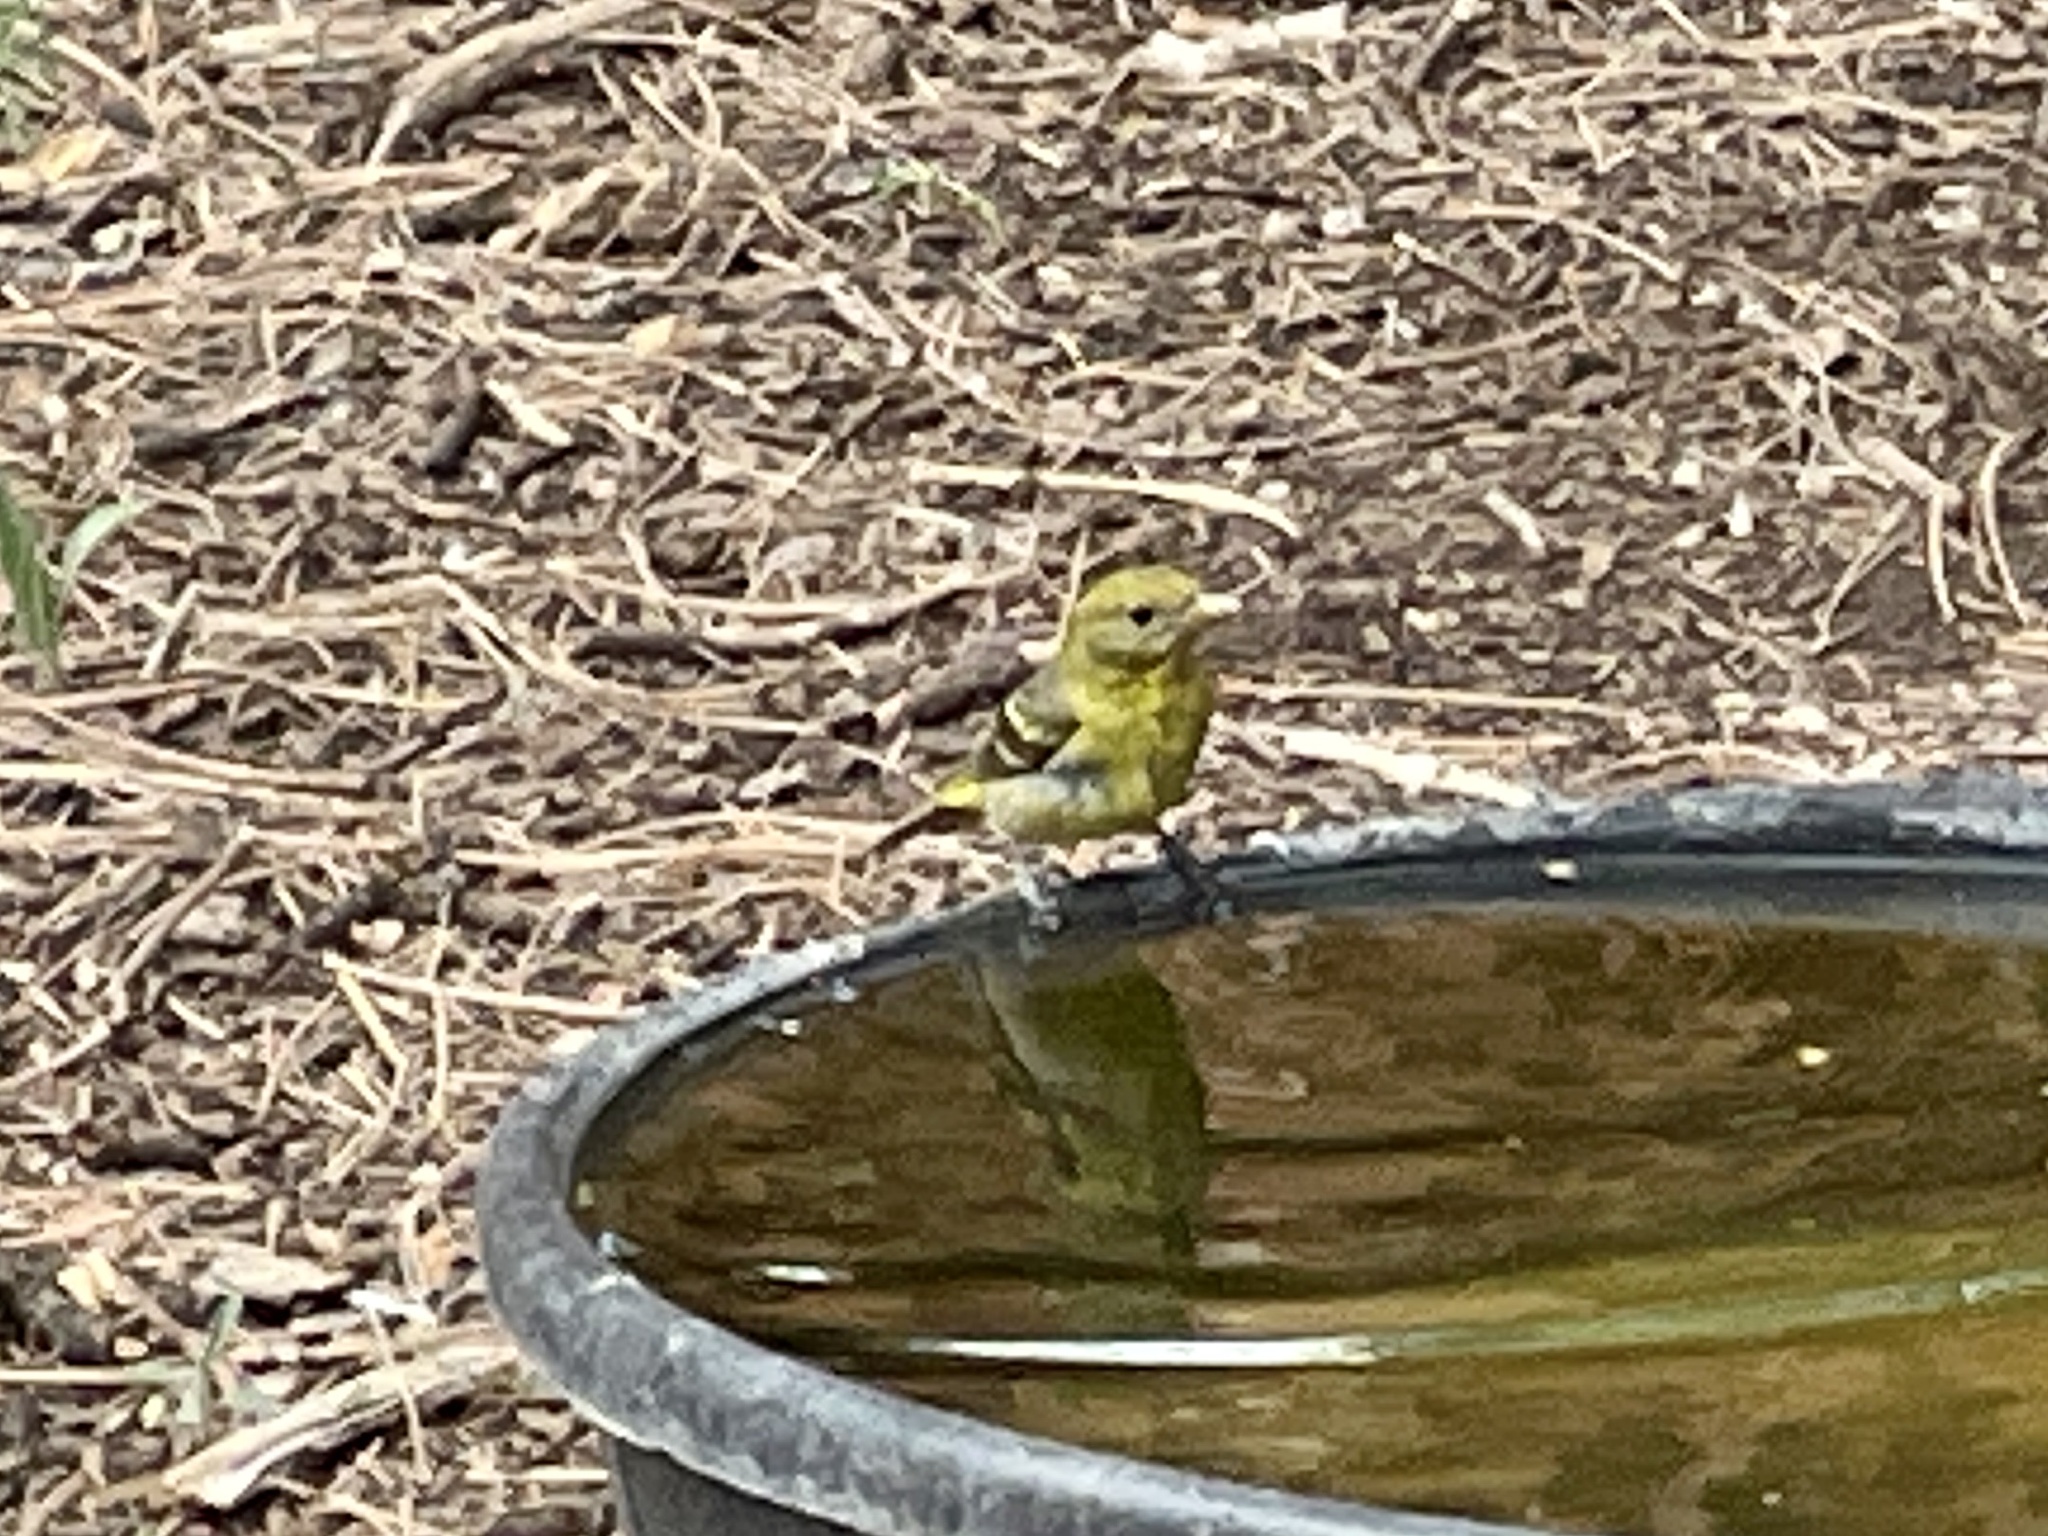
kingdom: Animalia
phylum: Chordata
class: Aves
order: Passeriformes
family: Cardinalidae
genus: Piranga
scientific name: Piranga ludoviciana
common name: Western tanager
